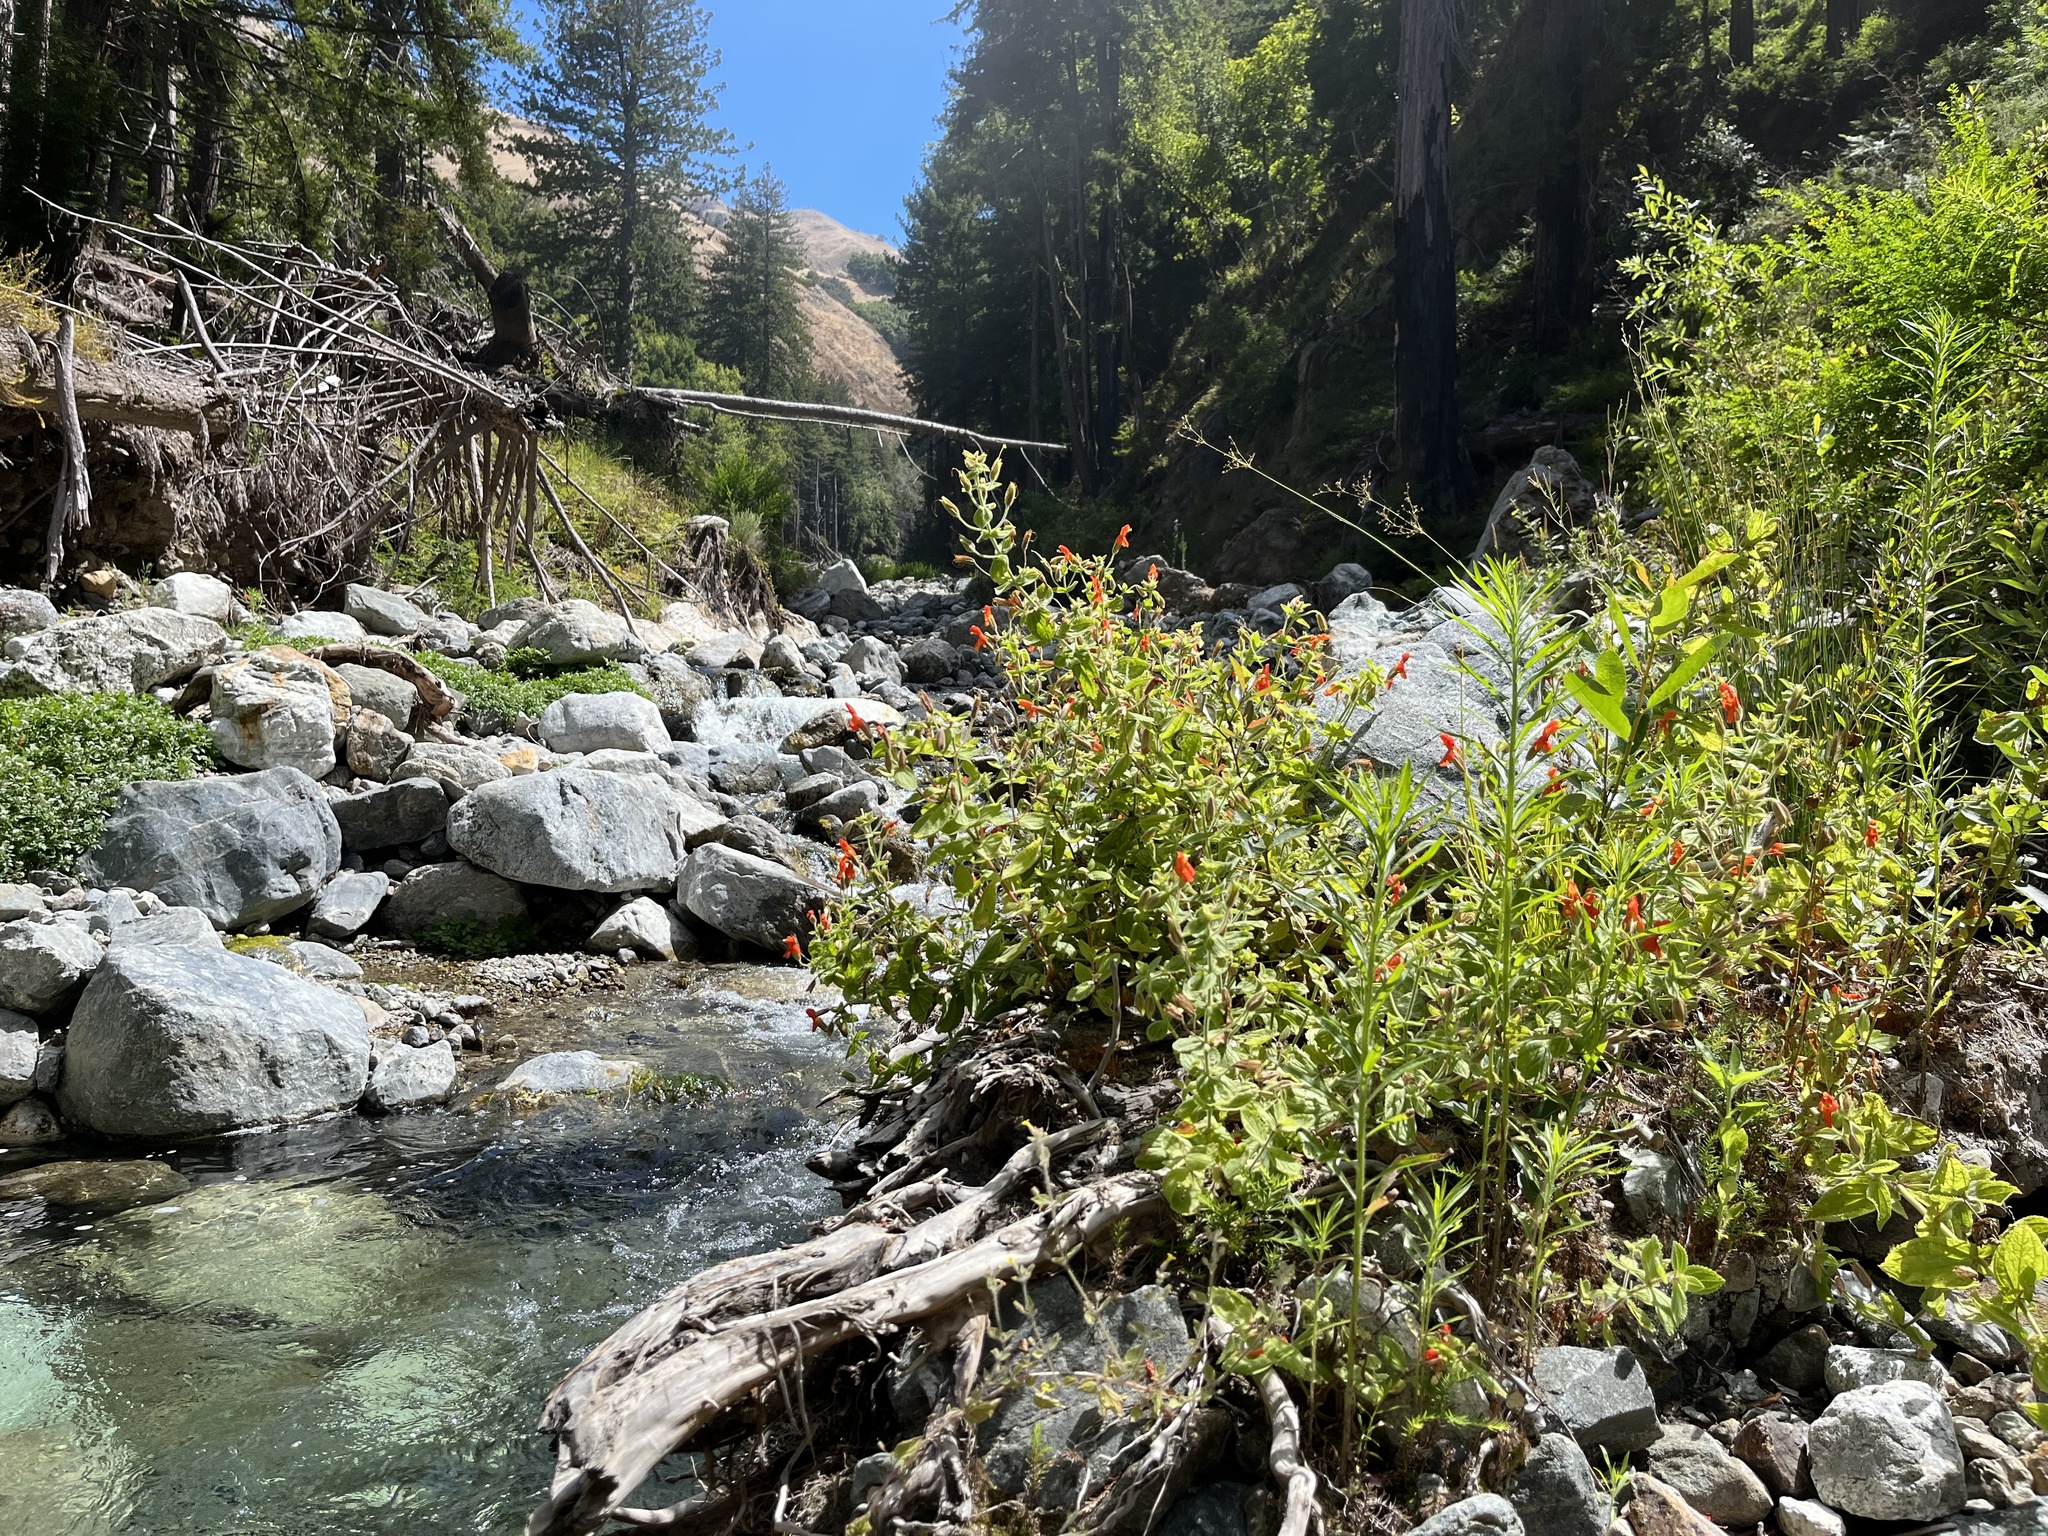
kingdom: Plantae
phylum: Tracheophyta
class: Magnoliopsida
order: Lamiales
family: Phrymaceae
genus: Erythranthe
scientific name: Erythranthe cardinalis
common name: Scarlet monkey-flower
